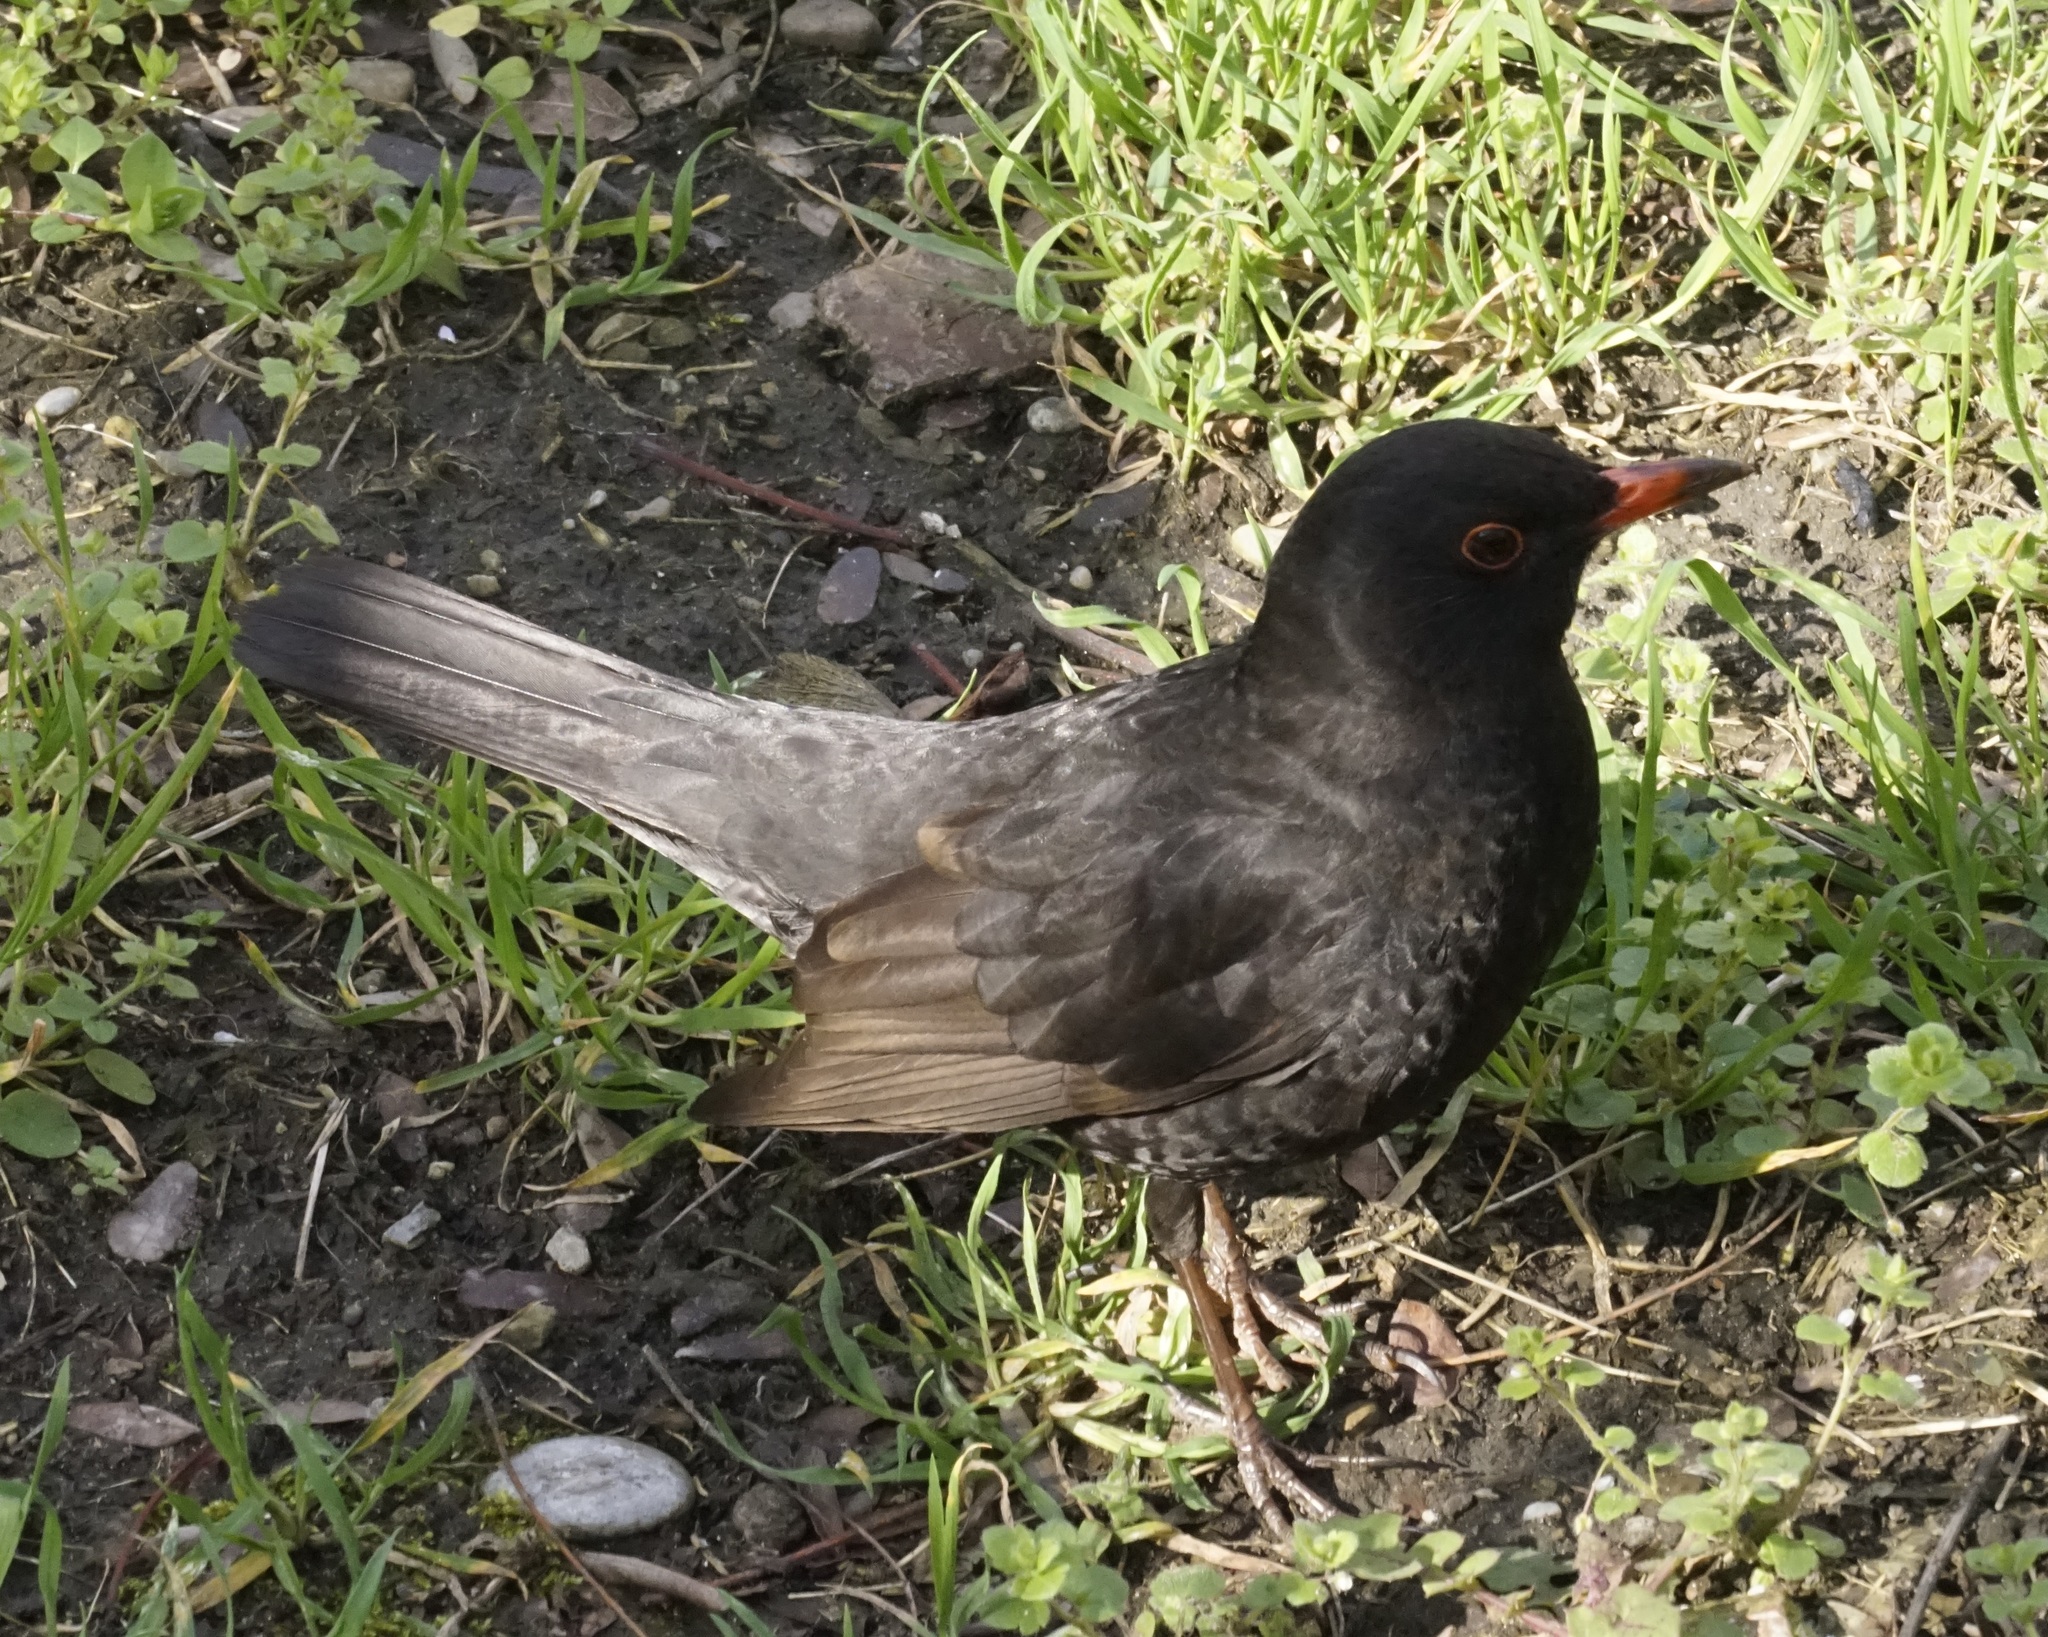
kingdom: Animalia
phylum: Chordata
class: Aves
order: Passeriformes
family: Turdidae
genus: Turdus
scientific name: Turdus merula
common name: Common blackbird
